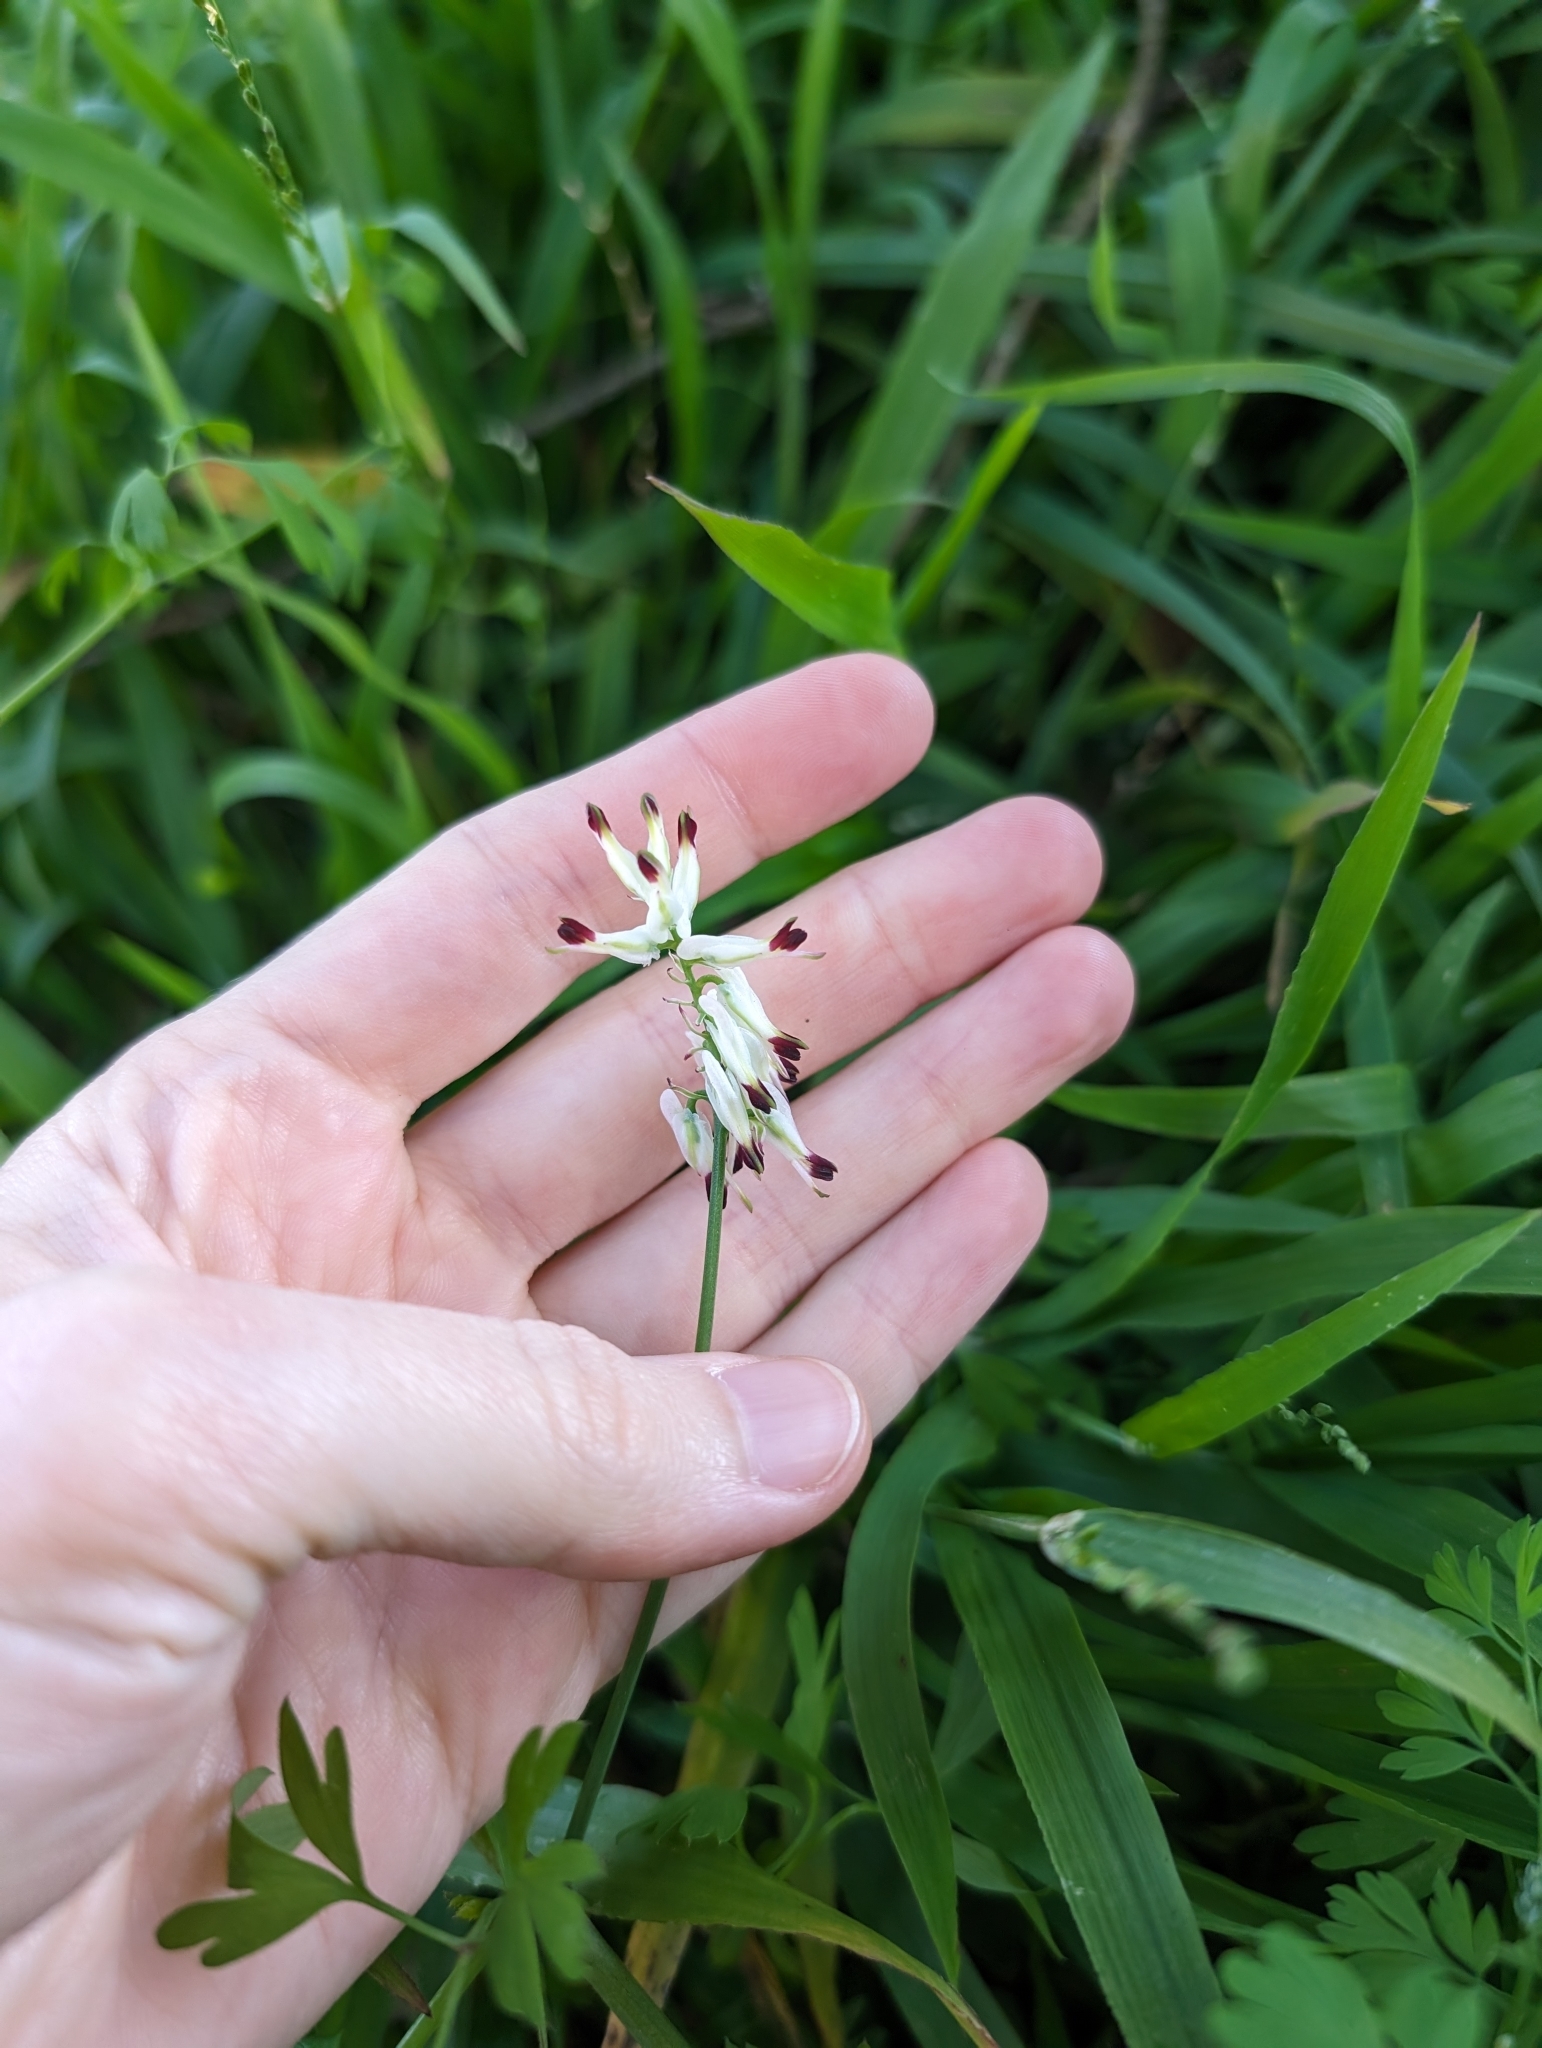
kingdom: Plantae
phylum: Tracheophyta
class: Magnoliopsida
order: Ranunculales
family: Papaveraceae
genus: Fumaria
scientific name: Fumaria capreolata
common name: White ramping-fumitory
